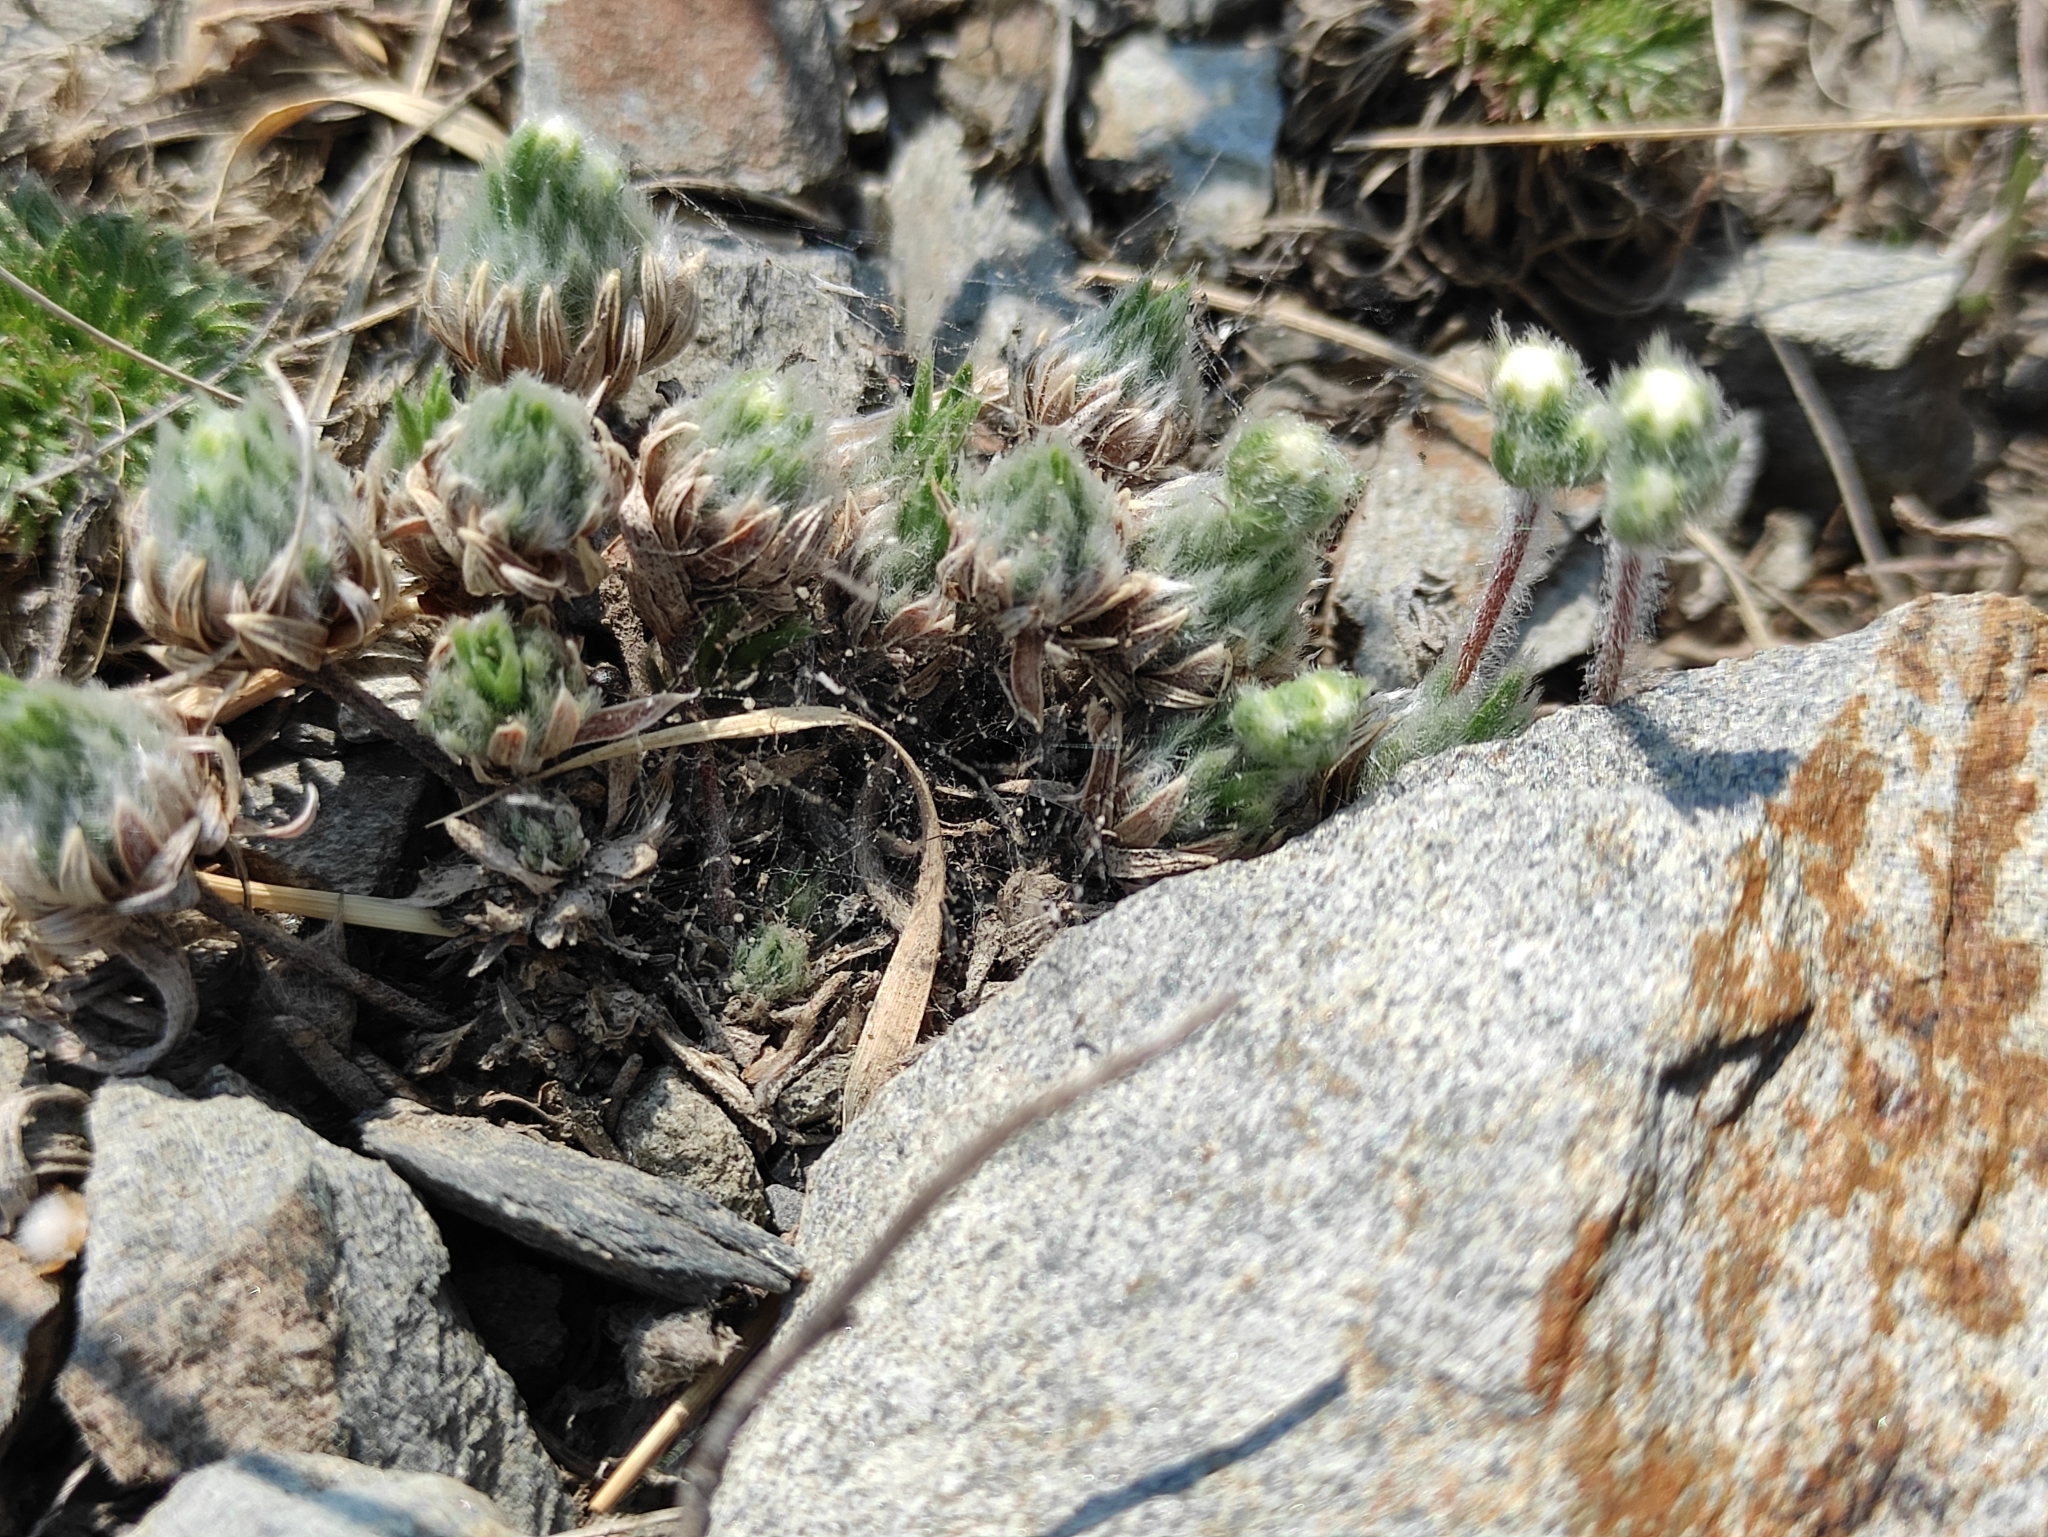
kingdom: Plantae
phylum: Tracheophyta
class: Magnoliopsida
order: Ericales
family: Primulaceae
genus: Androsace
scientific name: Androsace incana
